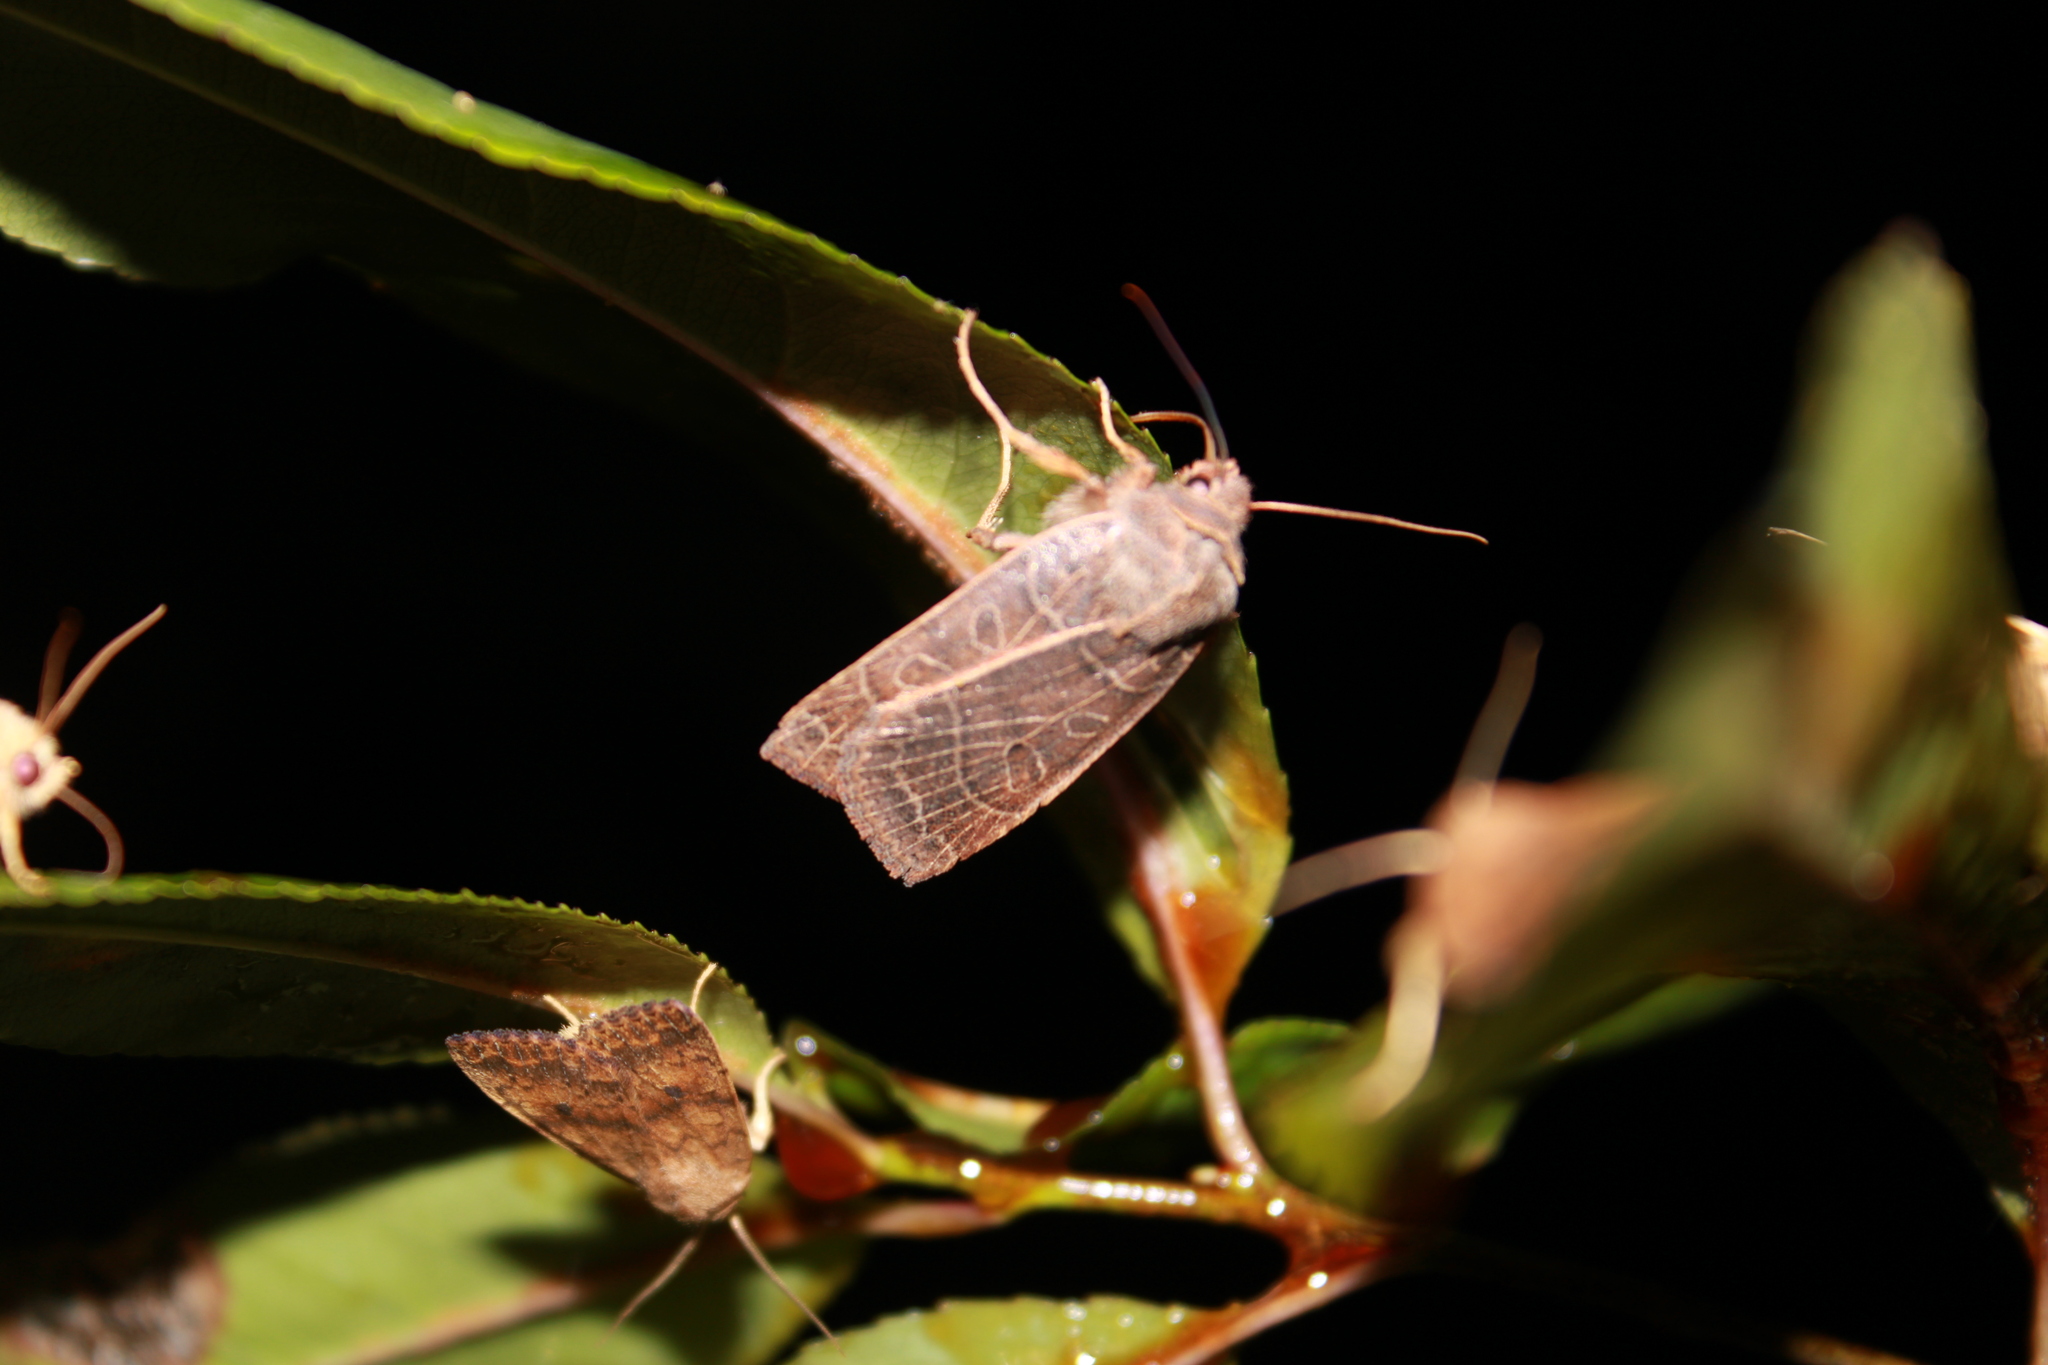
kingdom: Animalia
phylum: Arthropoda
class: Insecta
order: Lepidoptera
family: Noctuidae
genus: Chaetaglaea
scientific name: Chaetaglaea sericea
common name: Silky sallow
